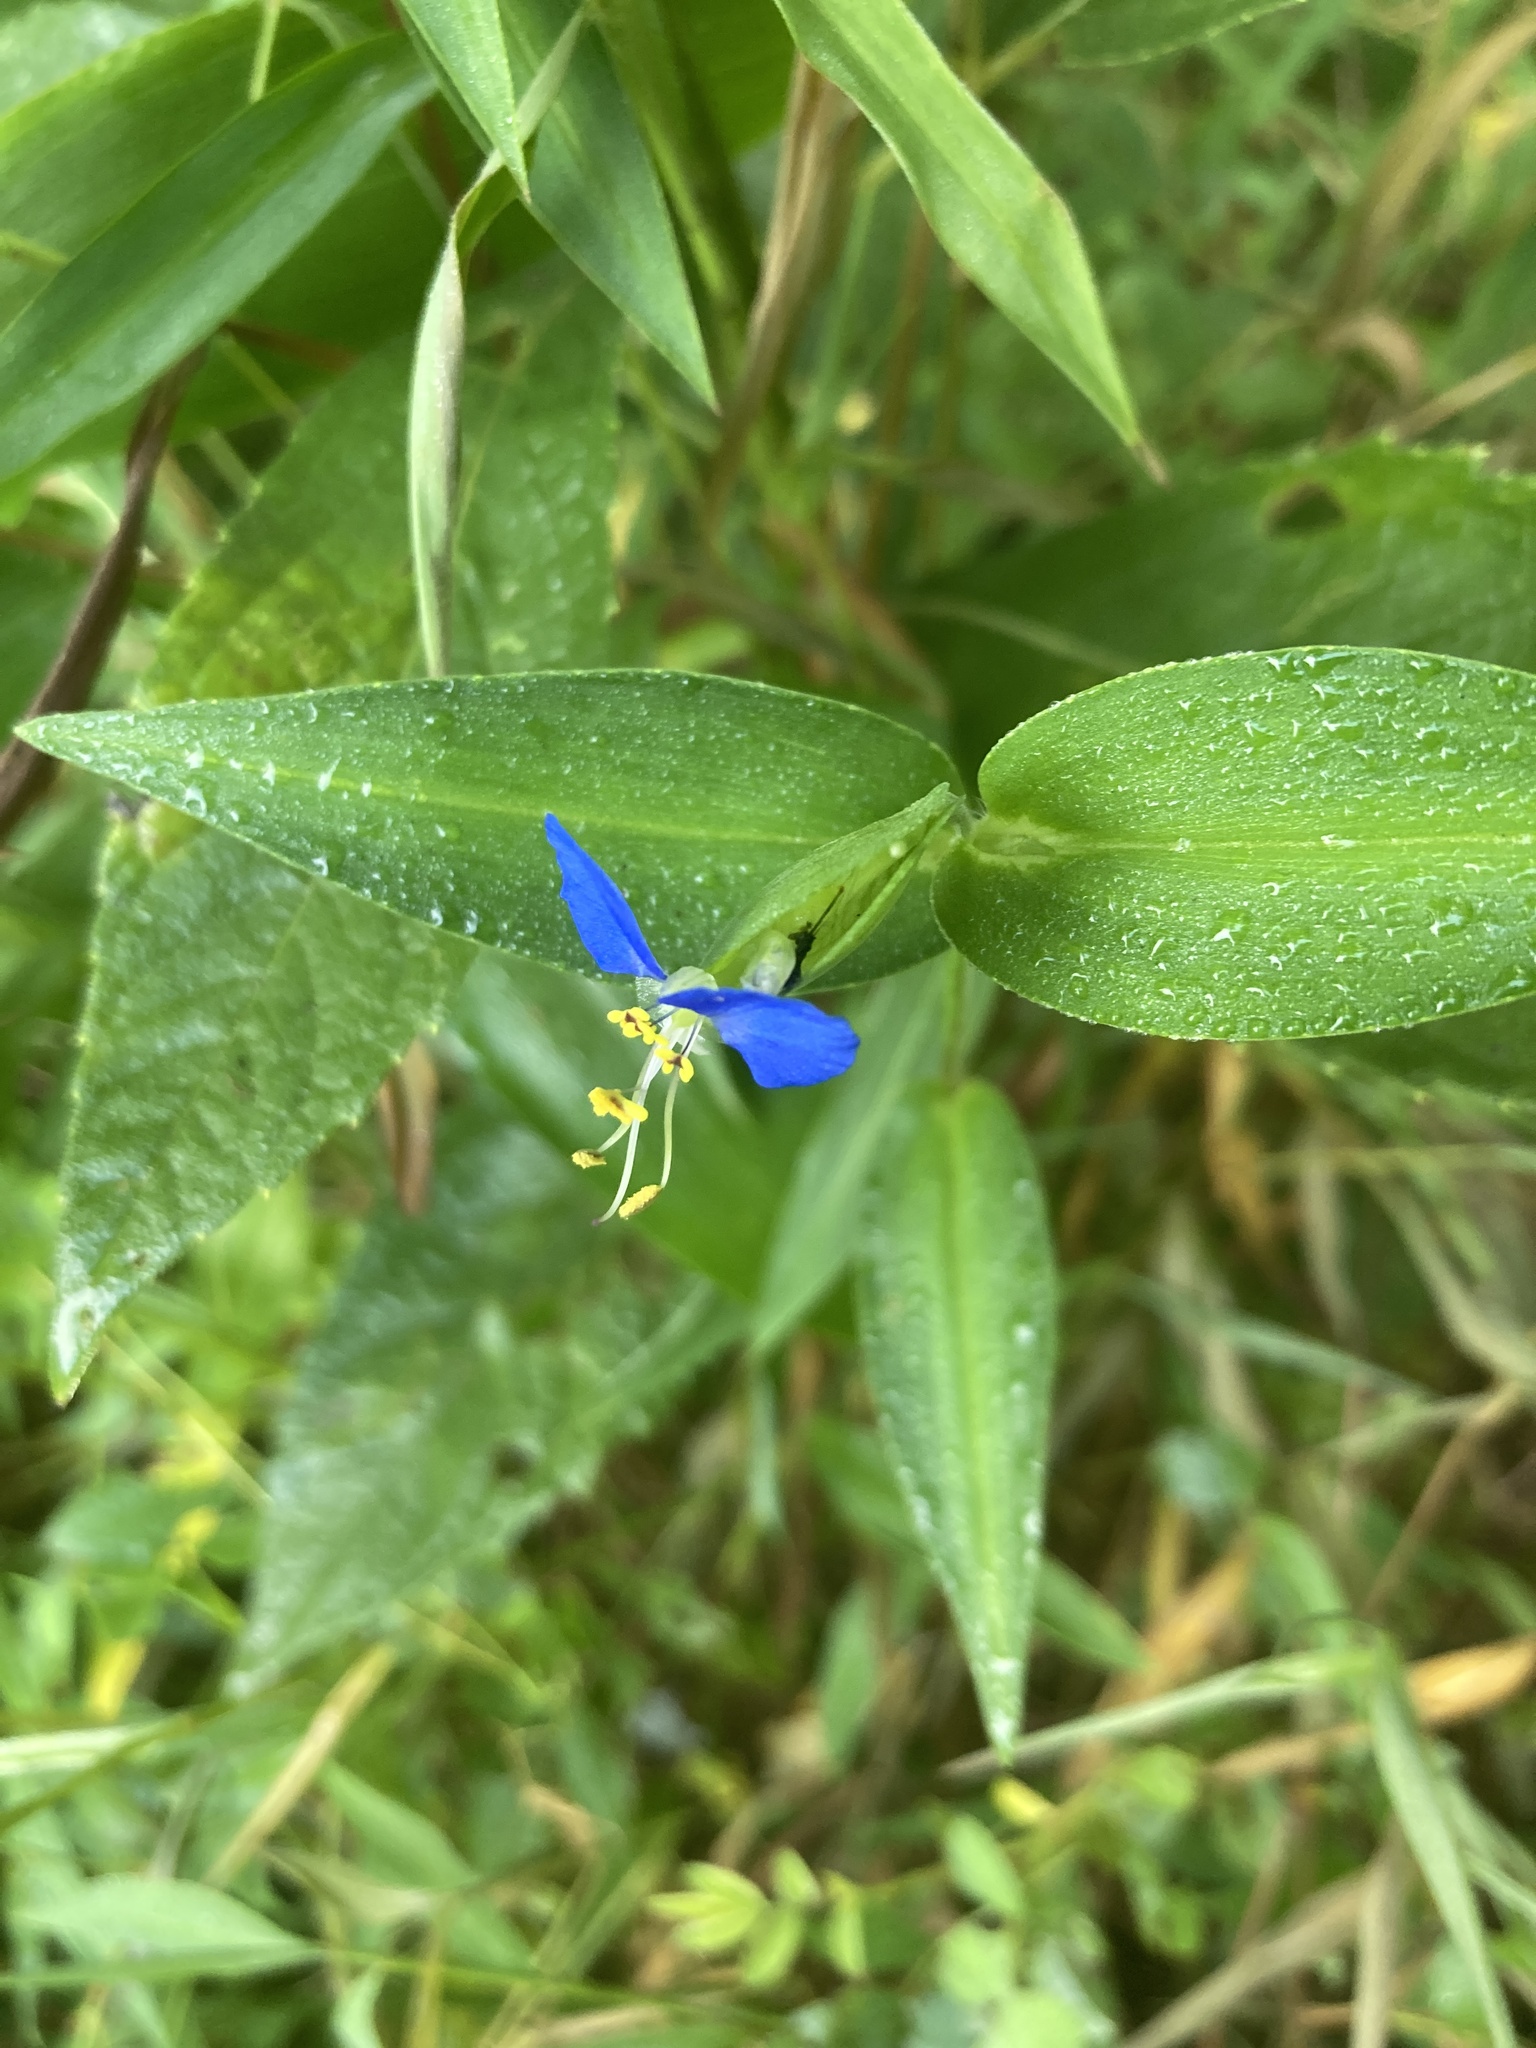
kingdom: Plantae
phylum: Tracheophyta
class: Liliopsida
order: Commelinales
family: Commelinaceae
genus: Commelina
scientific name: Commelina communis
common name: Asiatic dayflower
